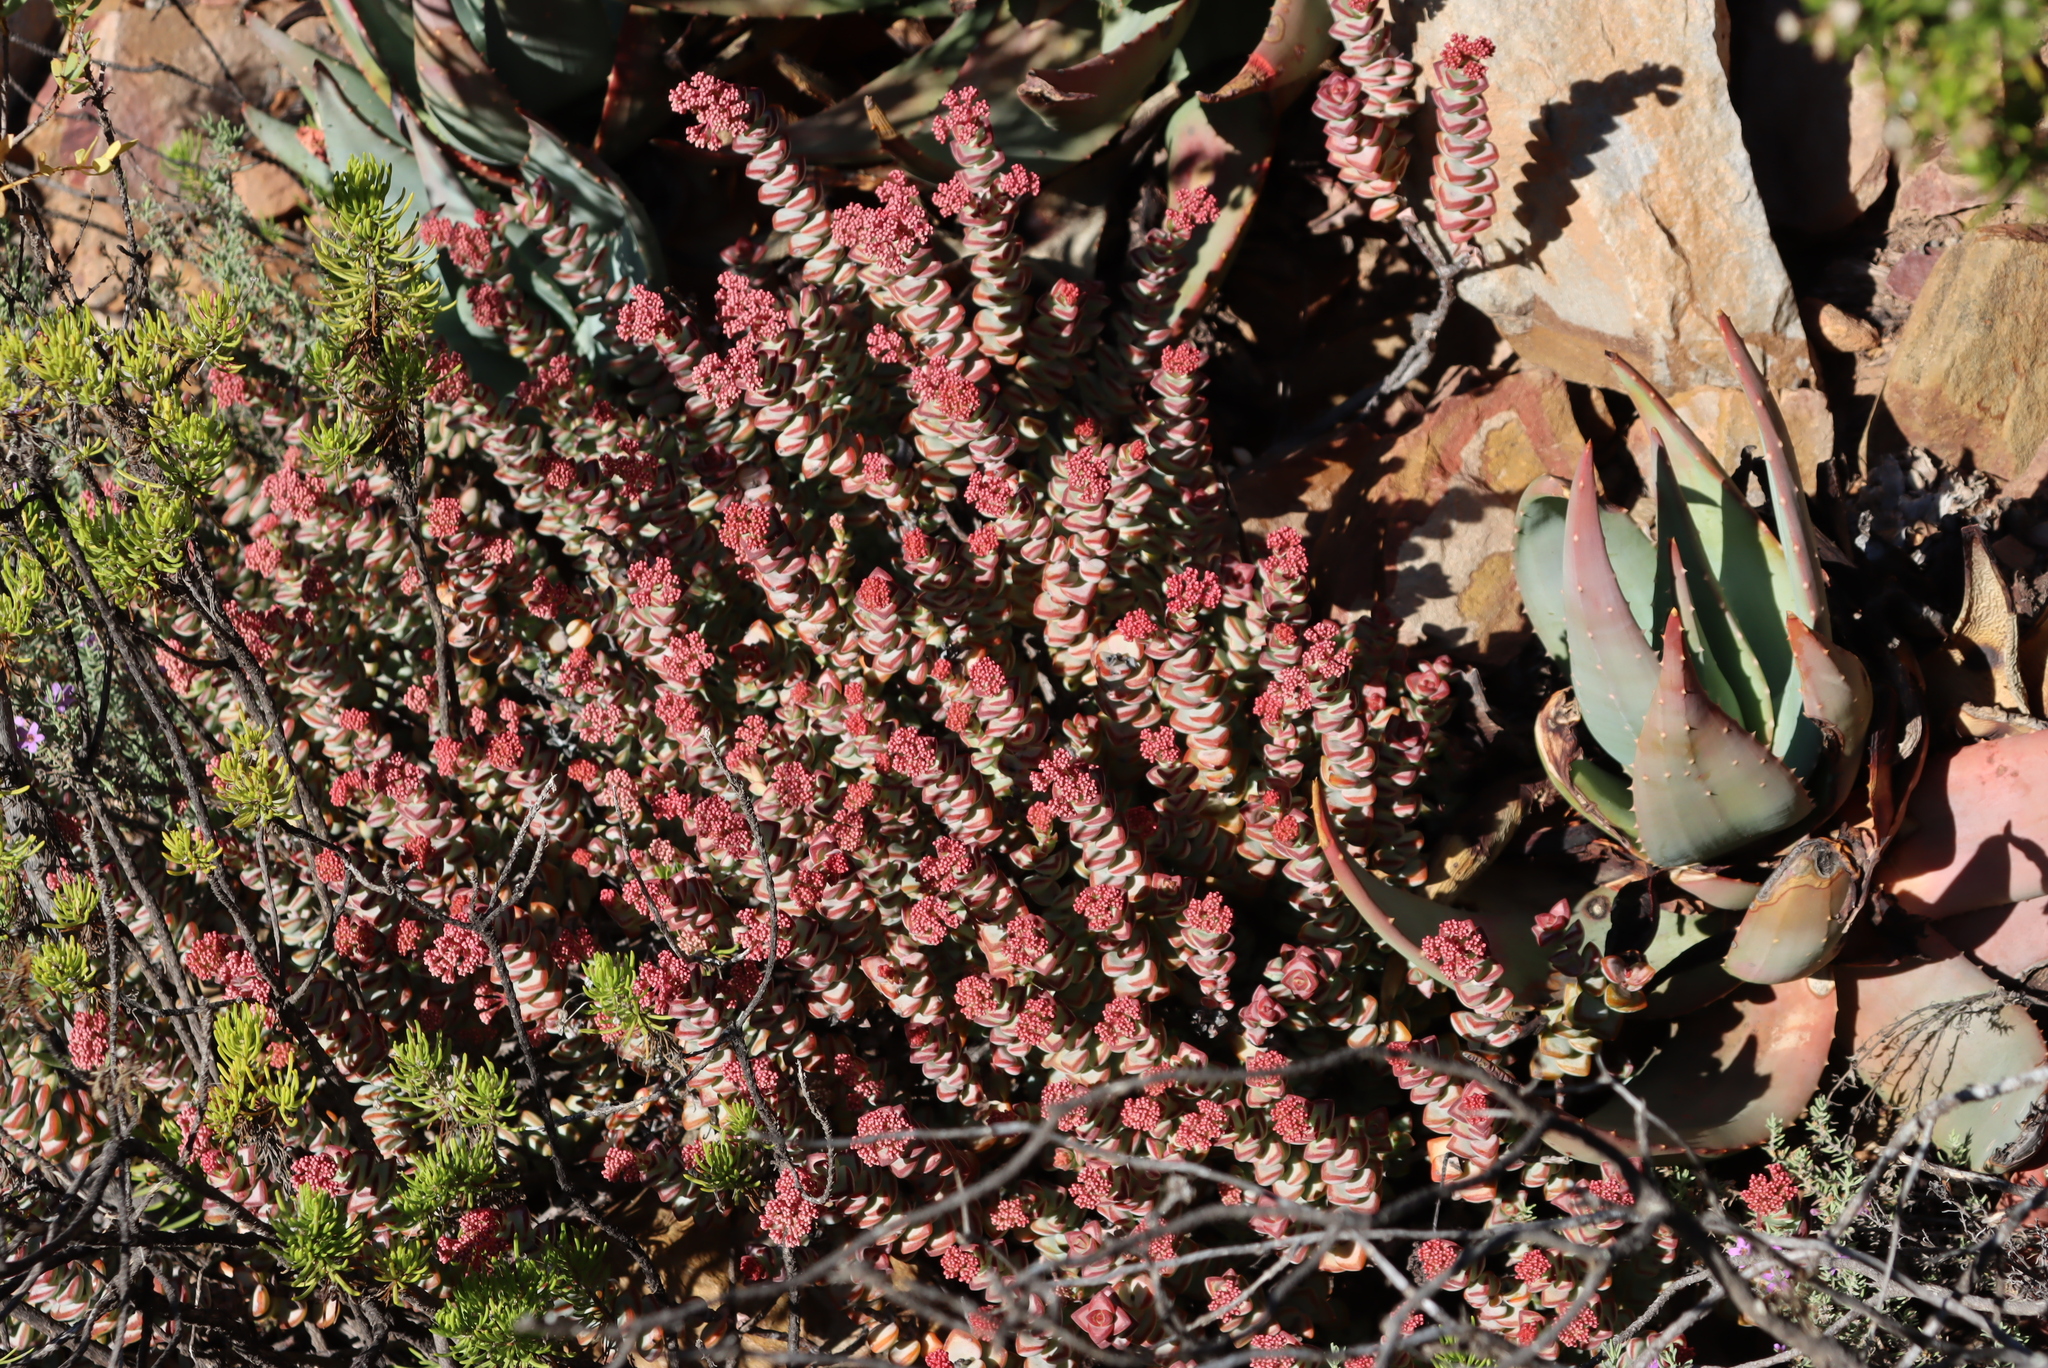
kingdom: Plantae
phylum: Tracheophyta
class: Magnoliopsida
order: Saxifragales
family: Crassulaceae
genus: Crassula
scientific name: Crassula rupestris
